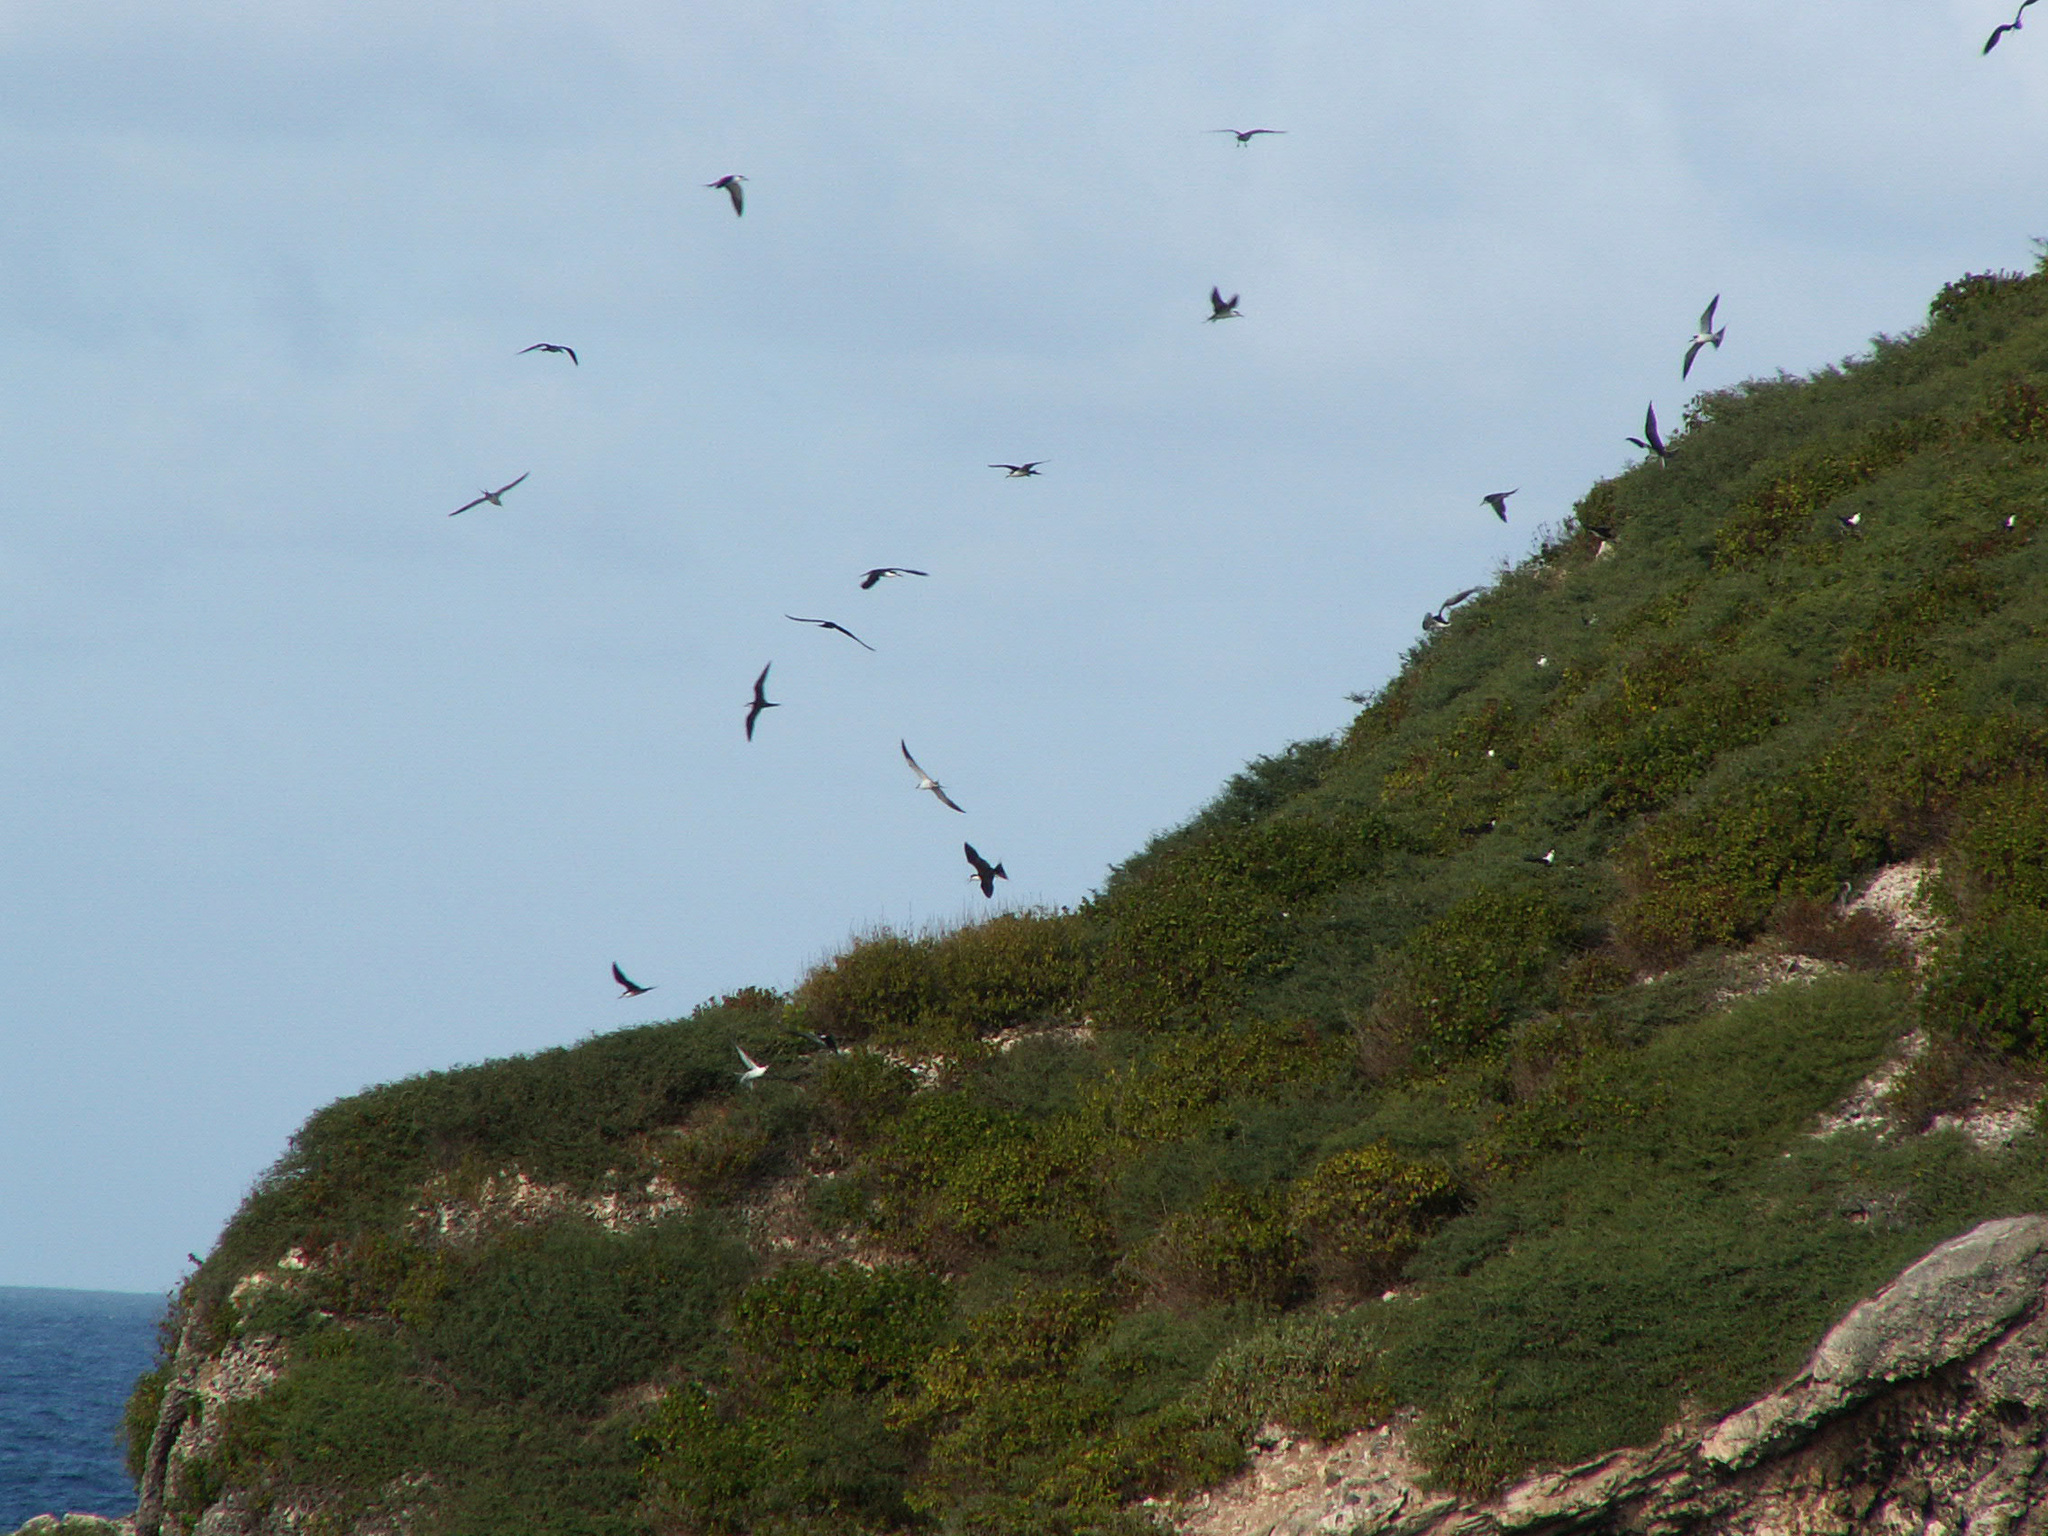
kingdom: Animalia
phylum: Chordata
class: Aves
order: Charadriiformes
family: Laridae
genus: Onychoprion
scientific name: Onychoprion fuscatus
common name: Sooty tern
